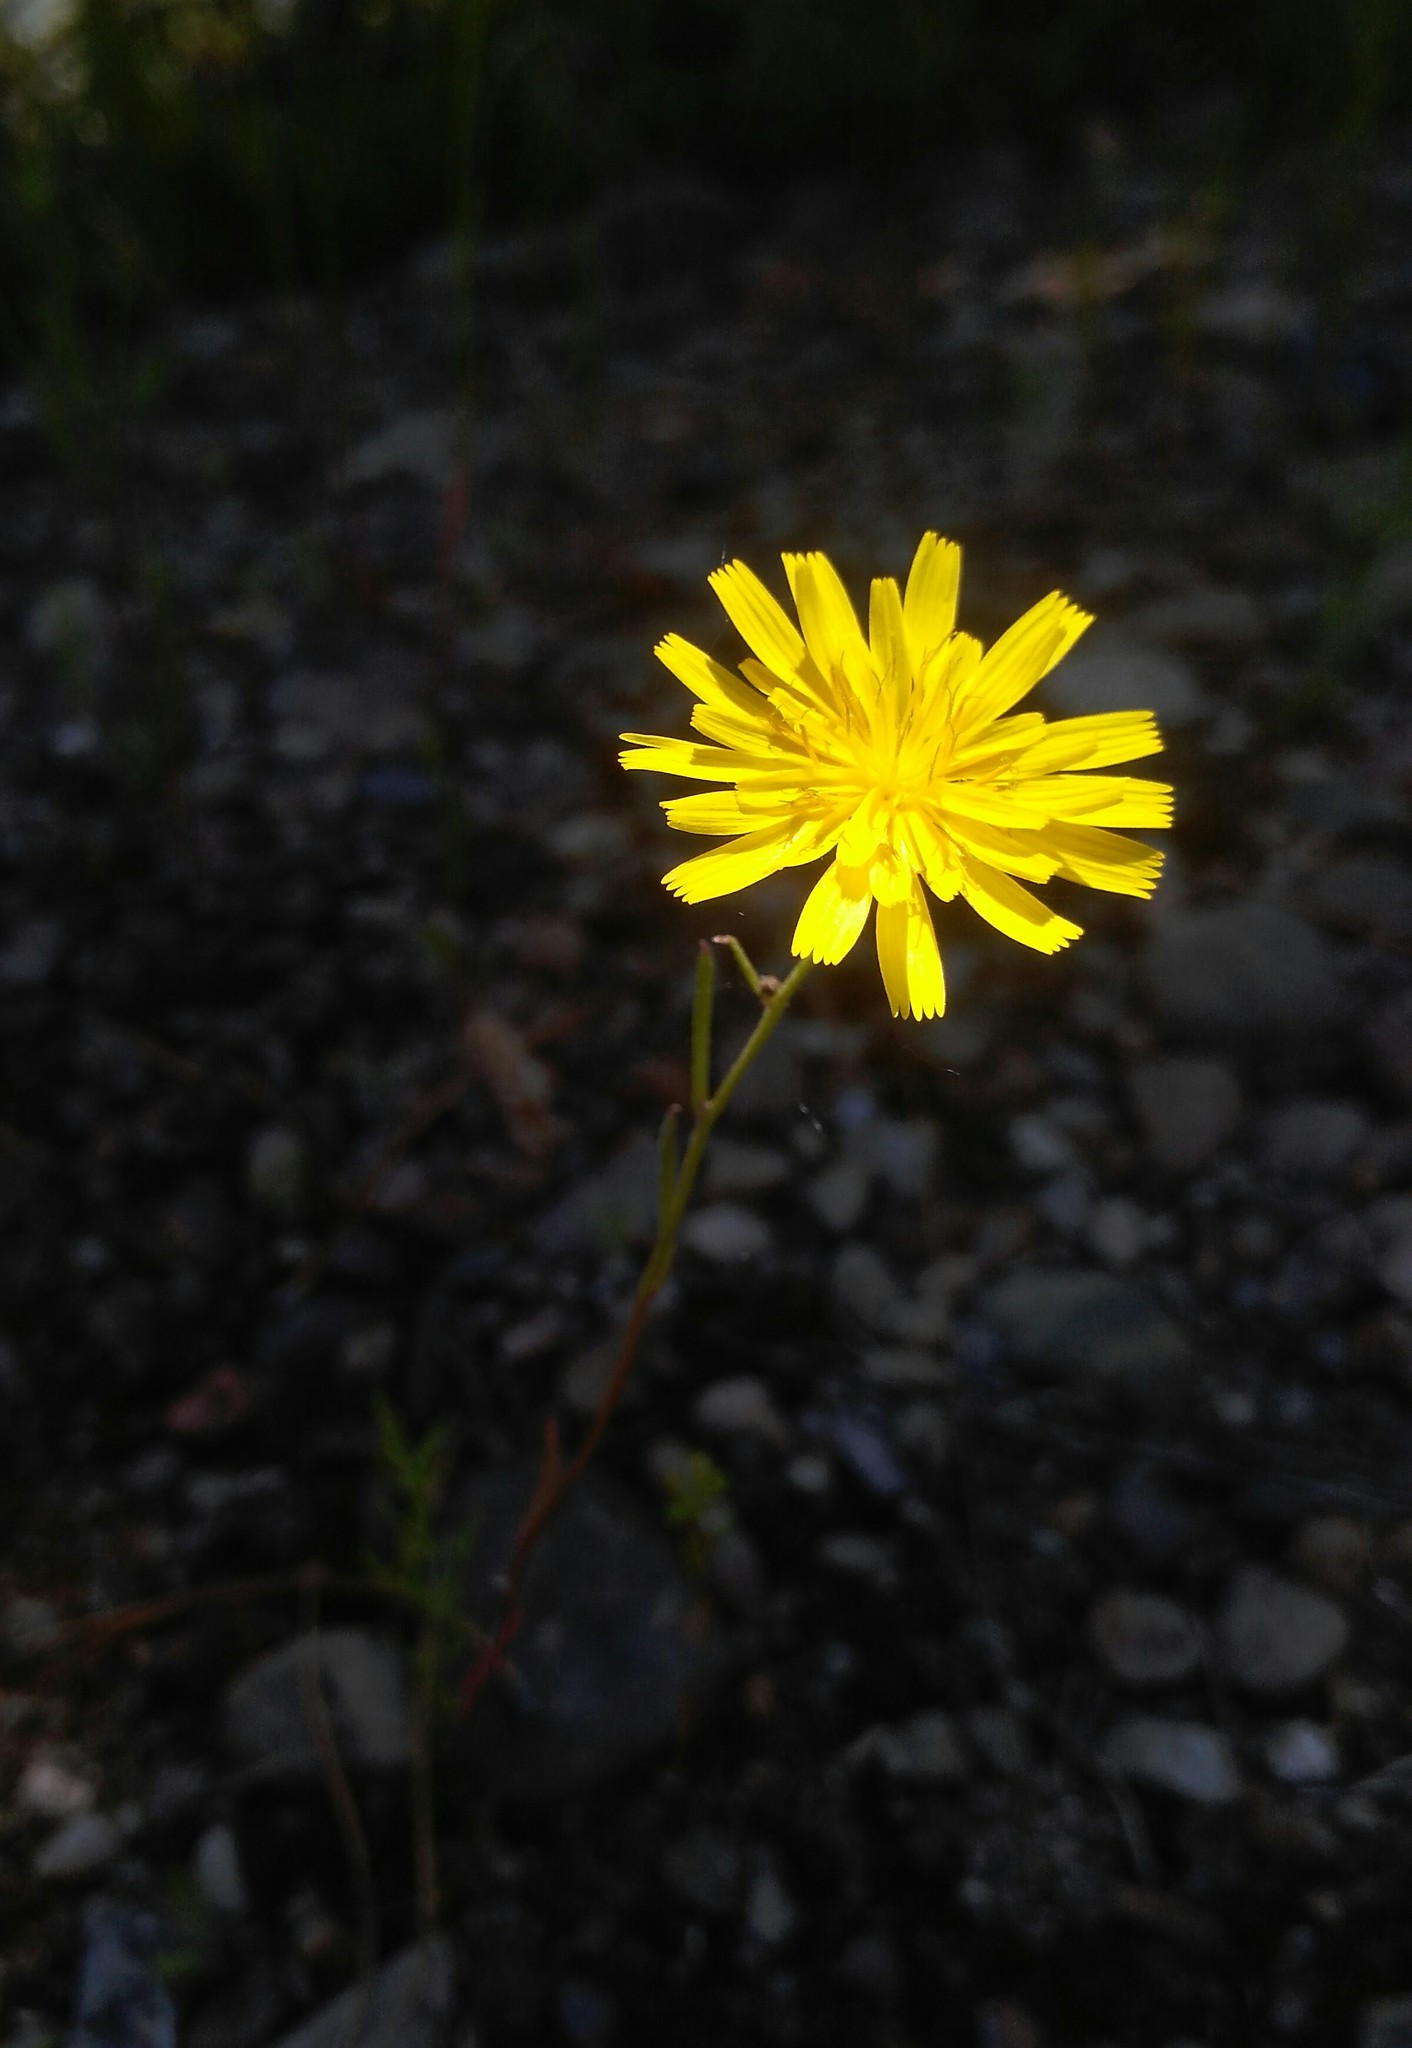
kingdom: Plantae
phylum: Tracheophyta
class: Magnoliopsida
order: Asterales
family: Asteraceae
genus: Crepis
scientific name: Crepis tectorum
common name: Narrow-leaved hawk's-beard
